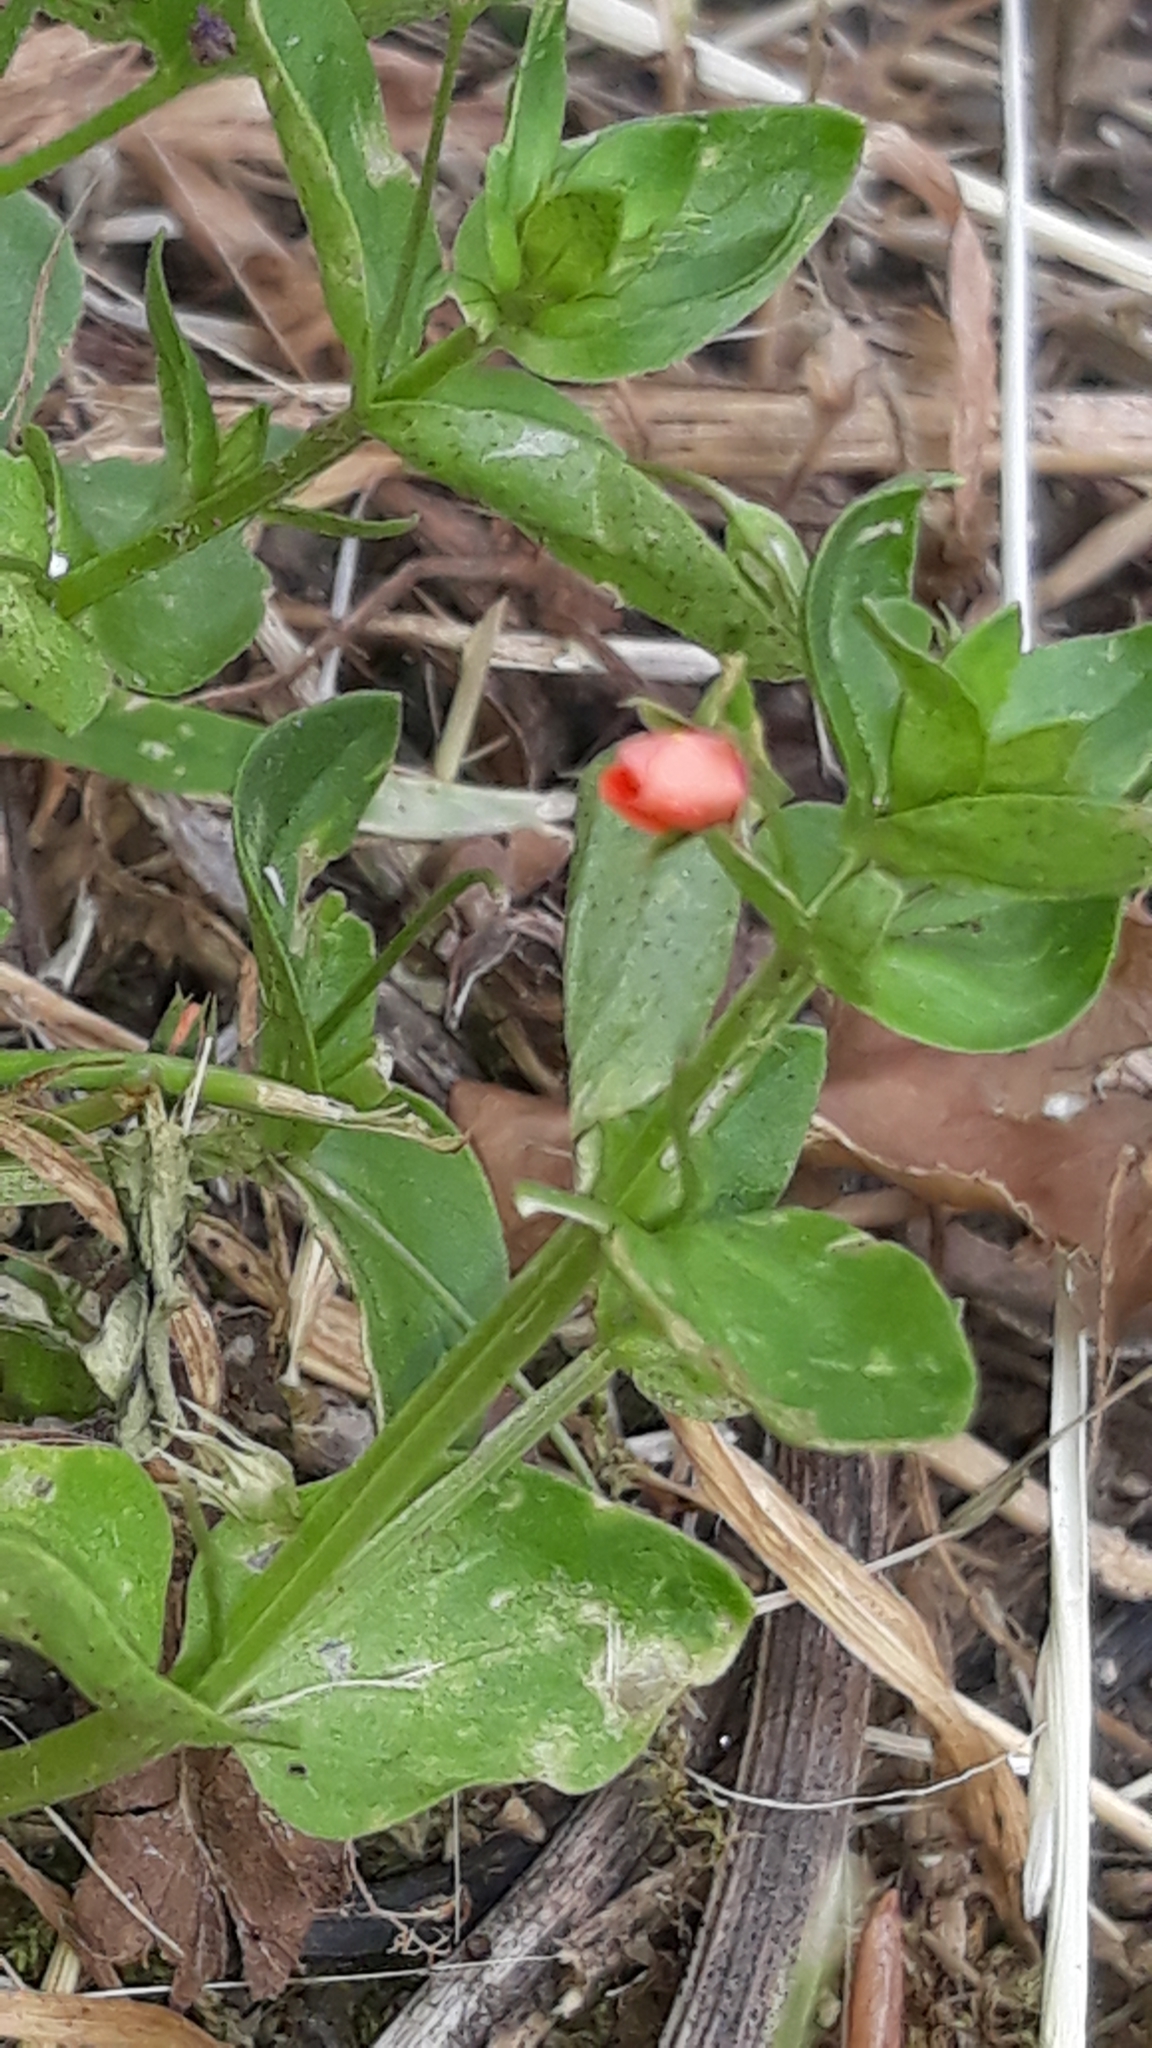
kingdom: Plantae
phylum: Tracheophyta
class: Magnoliopsida
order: Ericales
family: Primulaceae
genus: Lysimachia
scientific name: Lysimachia arvensis
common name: Scarlet pimpernel
